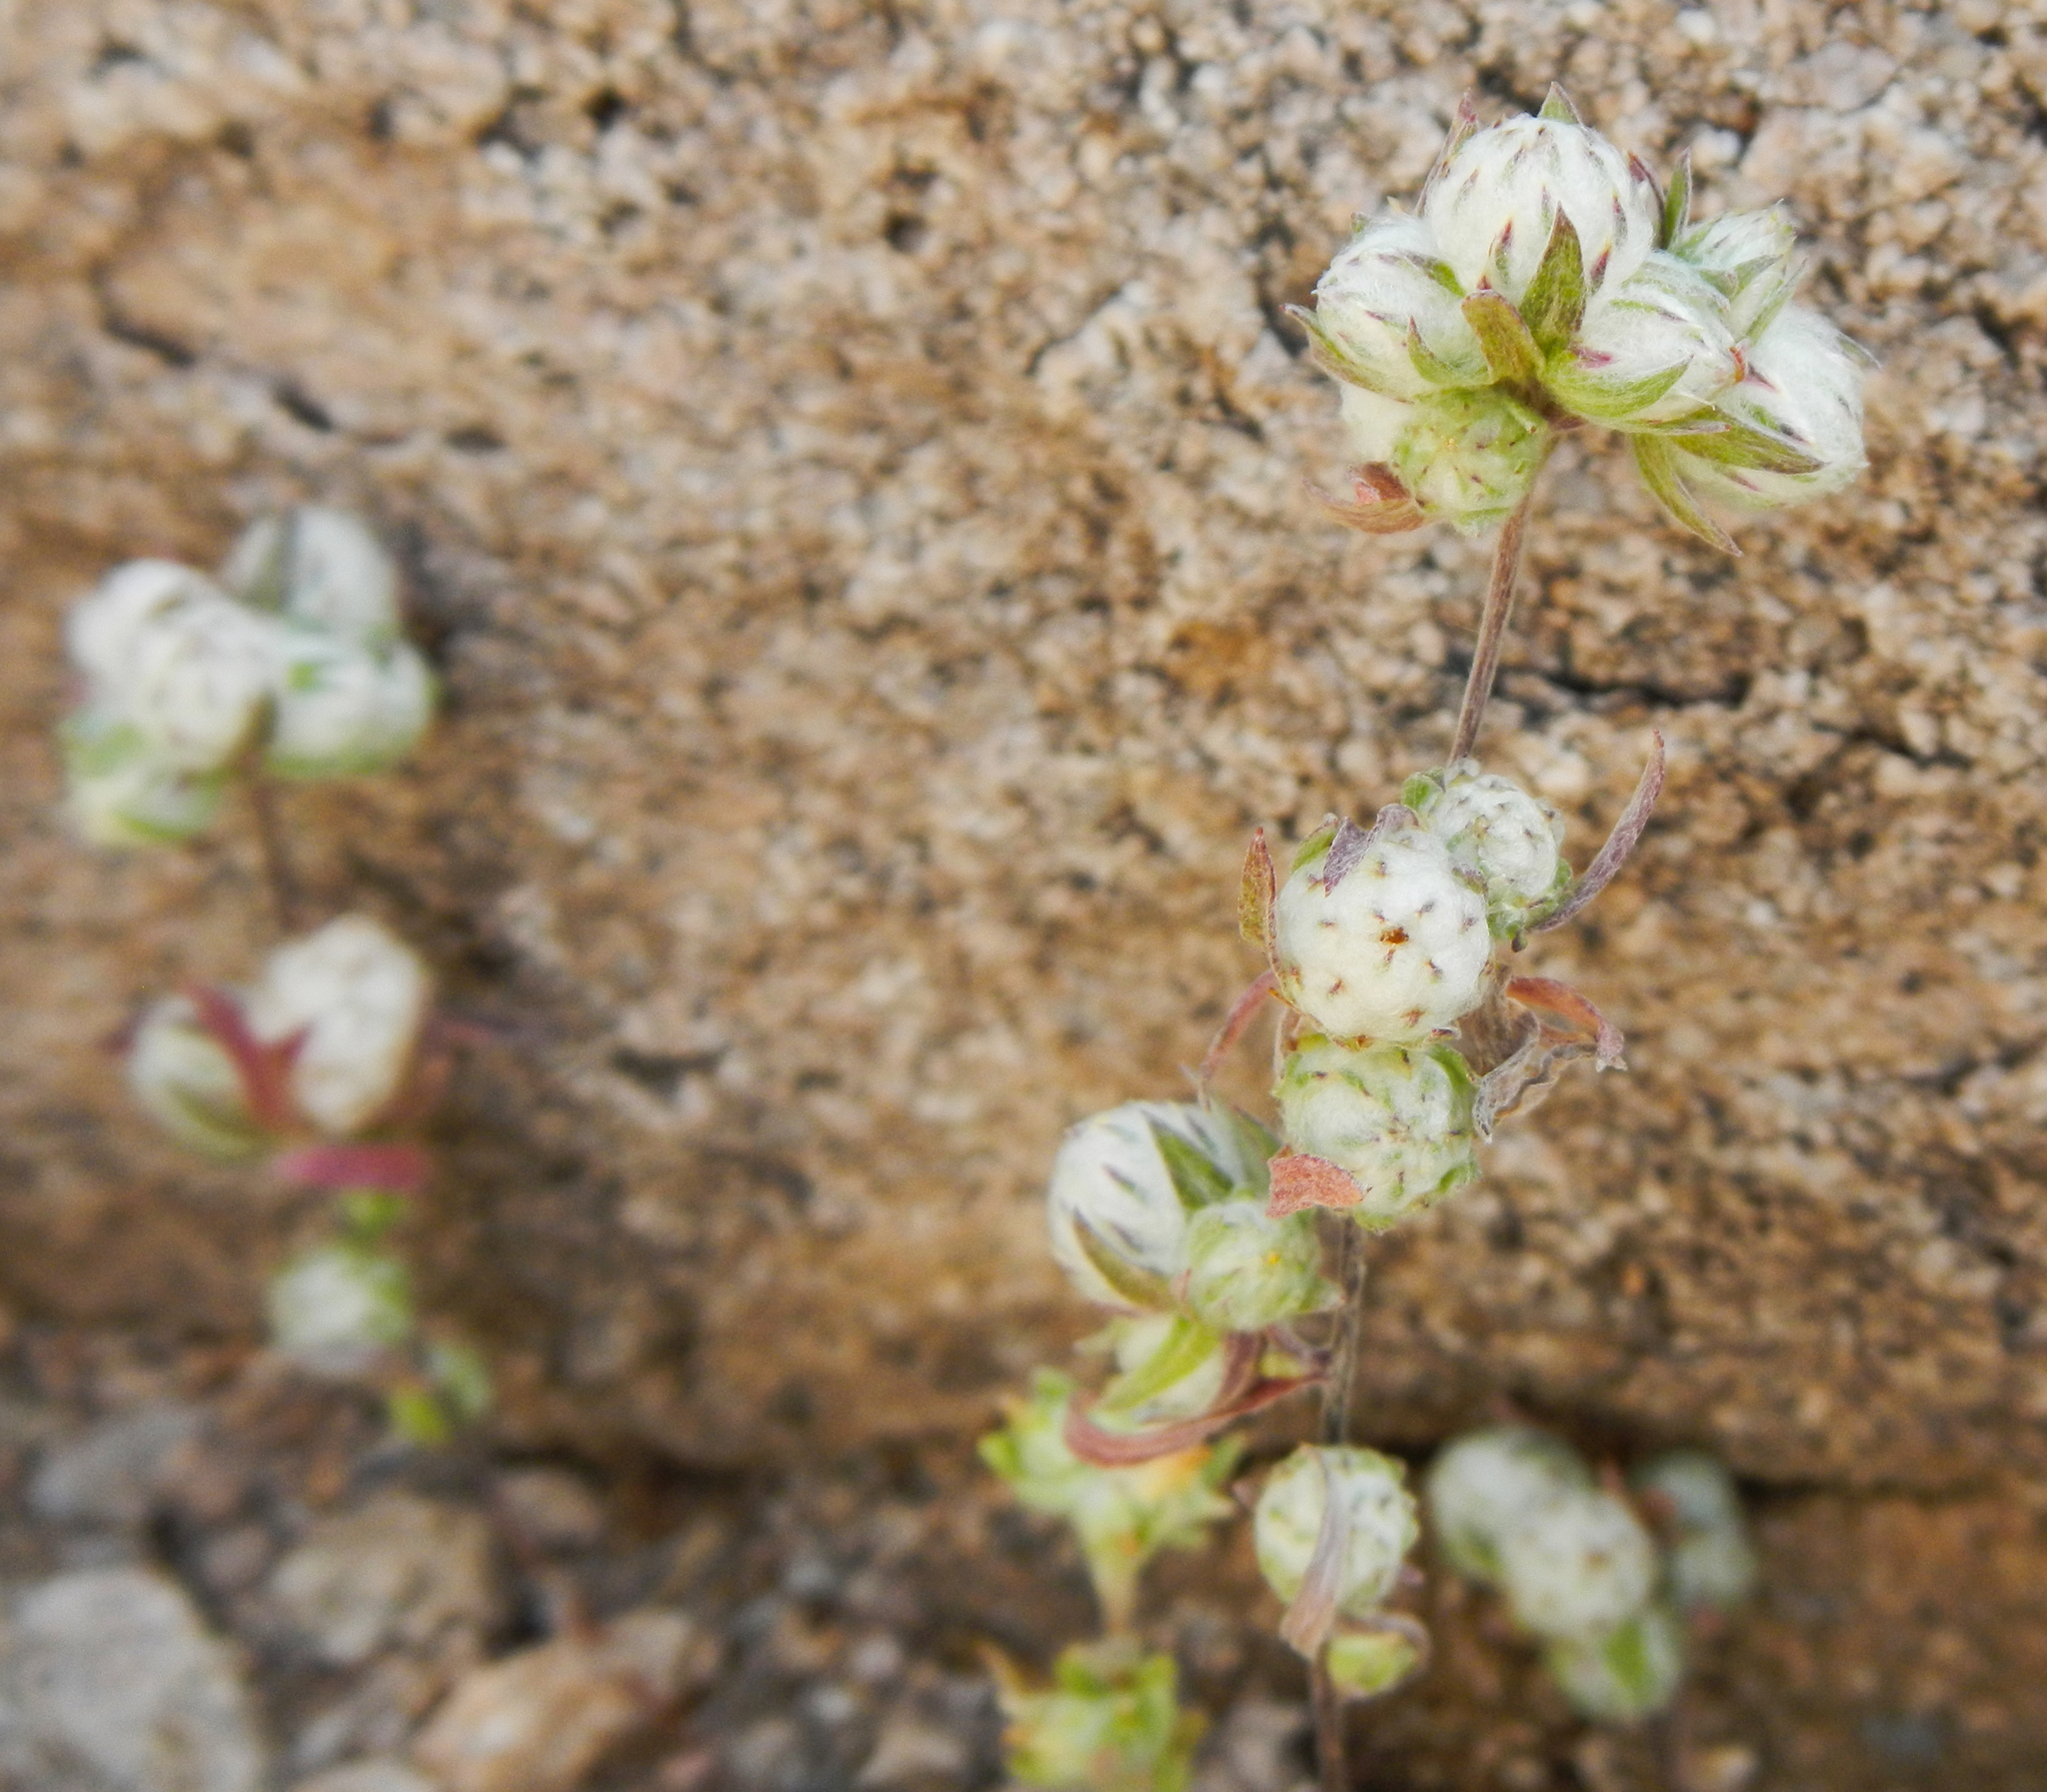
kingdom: Plantae
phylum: Tracheophyta
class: Magnoliopsida
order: Asterales
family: Asteraceae
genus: Stylocline
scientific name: Stylocline micropoides
